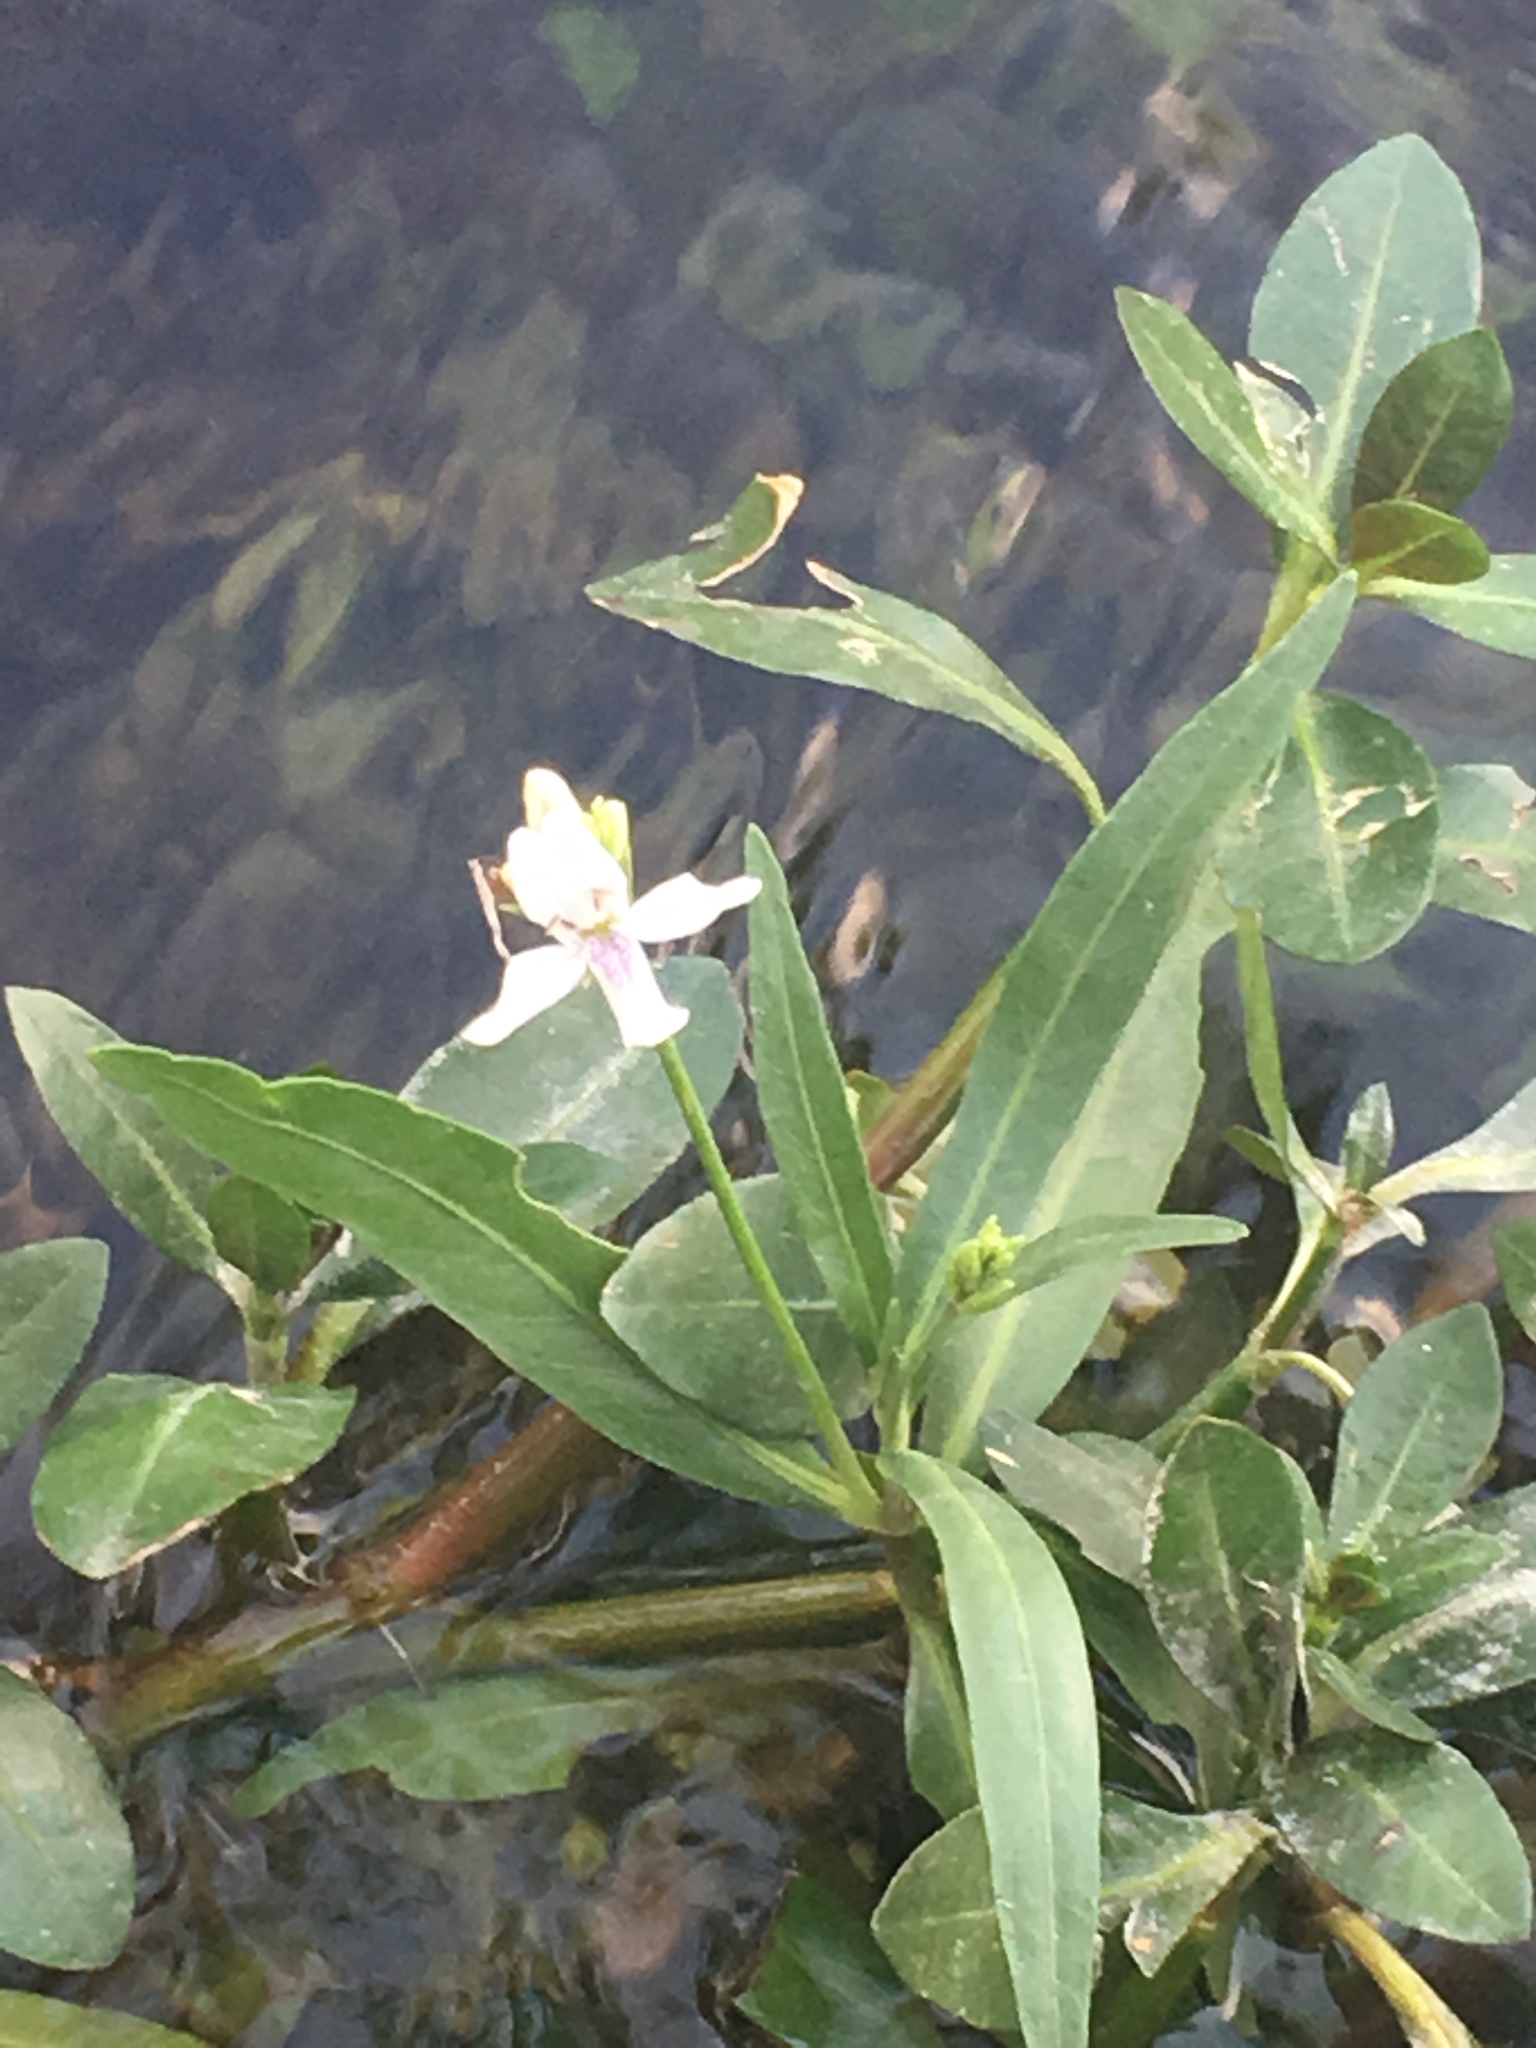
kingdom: Plantae
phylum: Tracheophyta
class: Magnoliopsida
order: Lamiales
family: Acanthaceae
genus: Dianthera
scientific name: Dianthera americana
